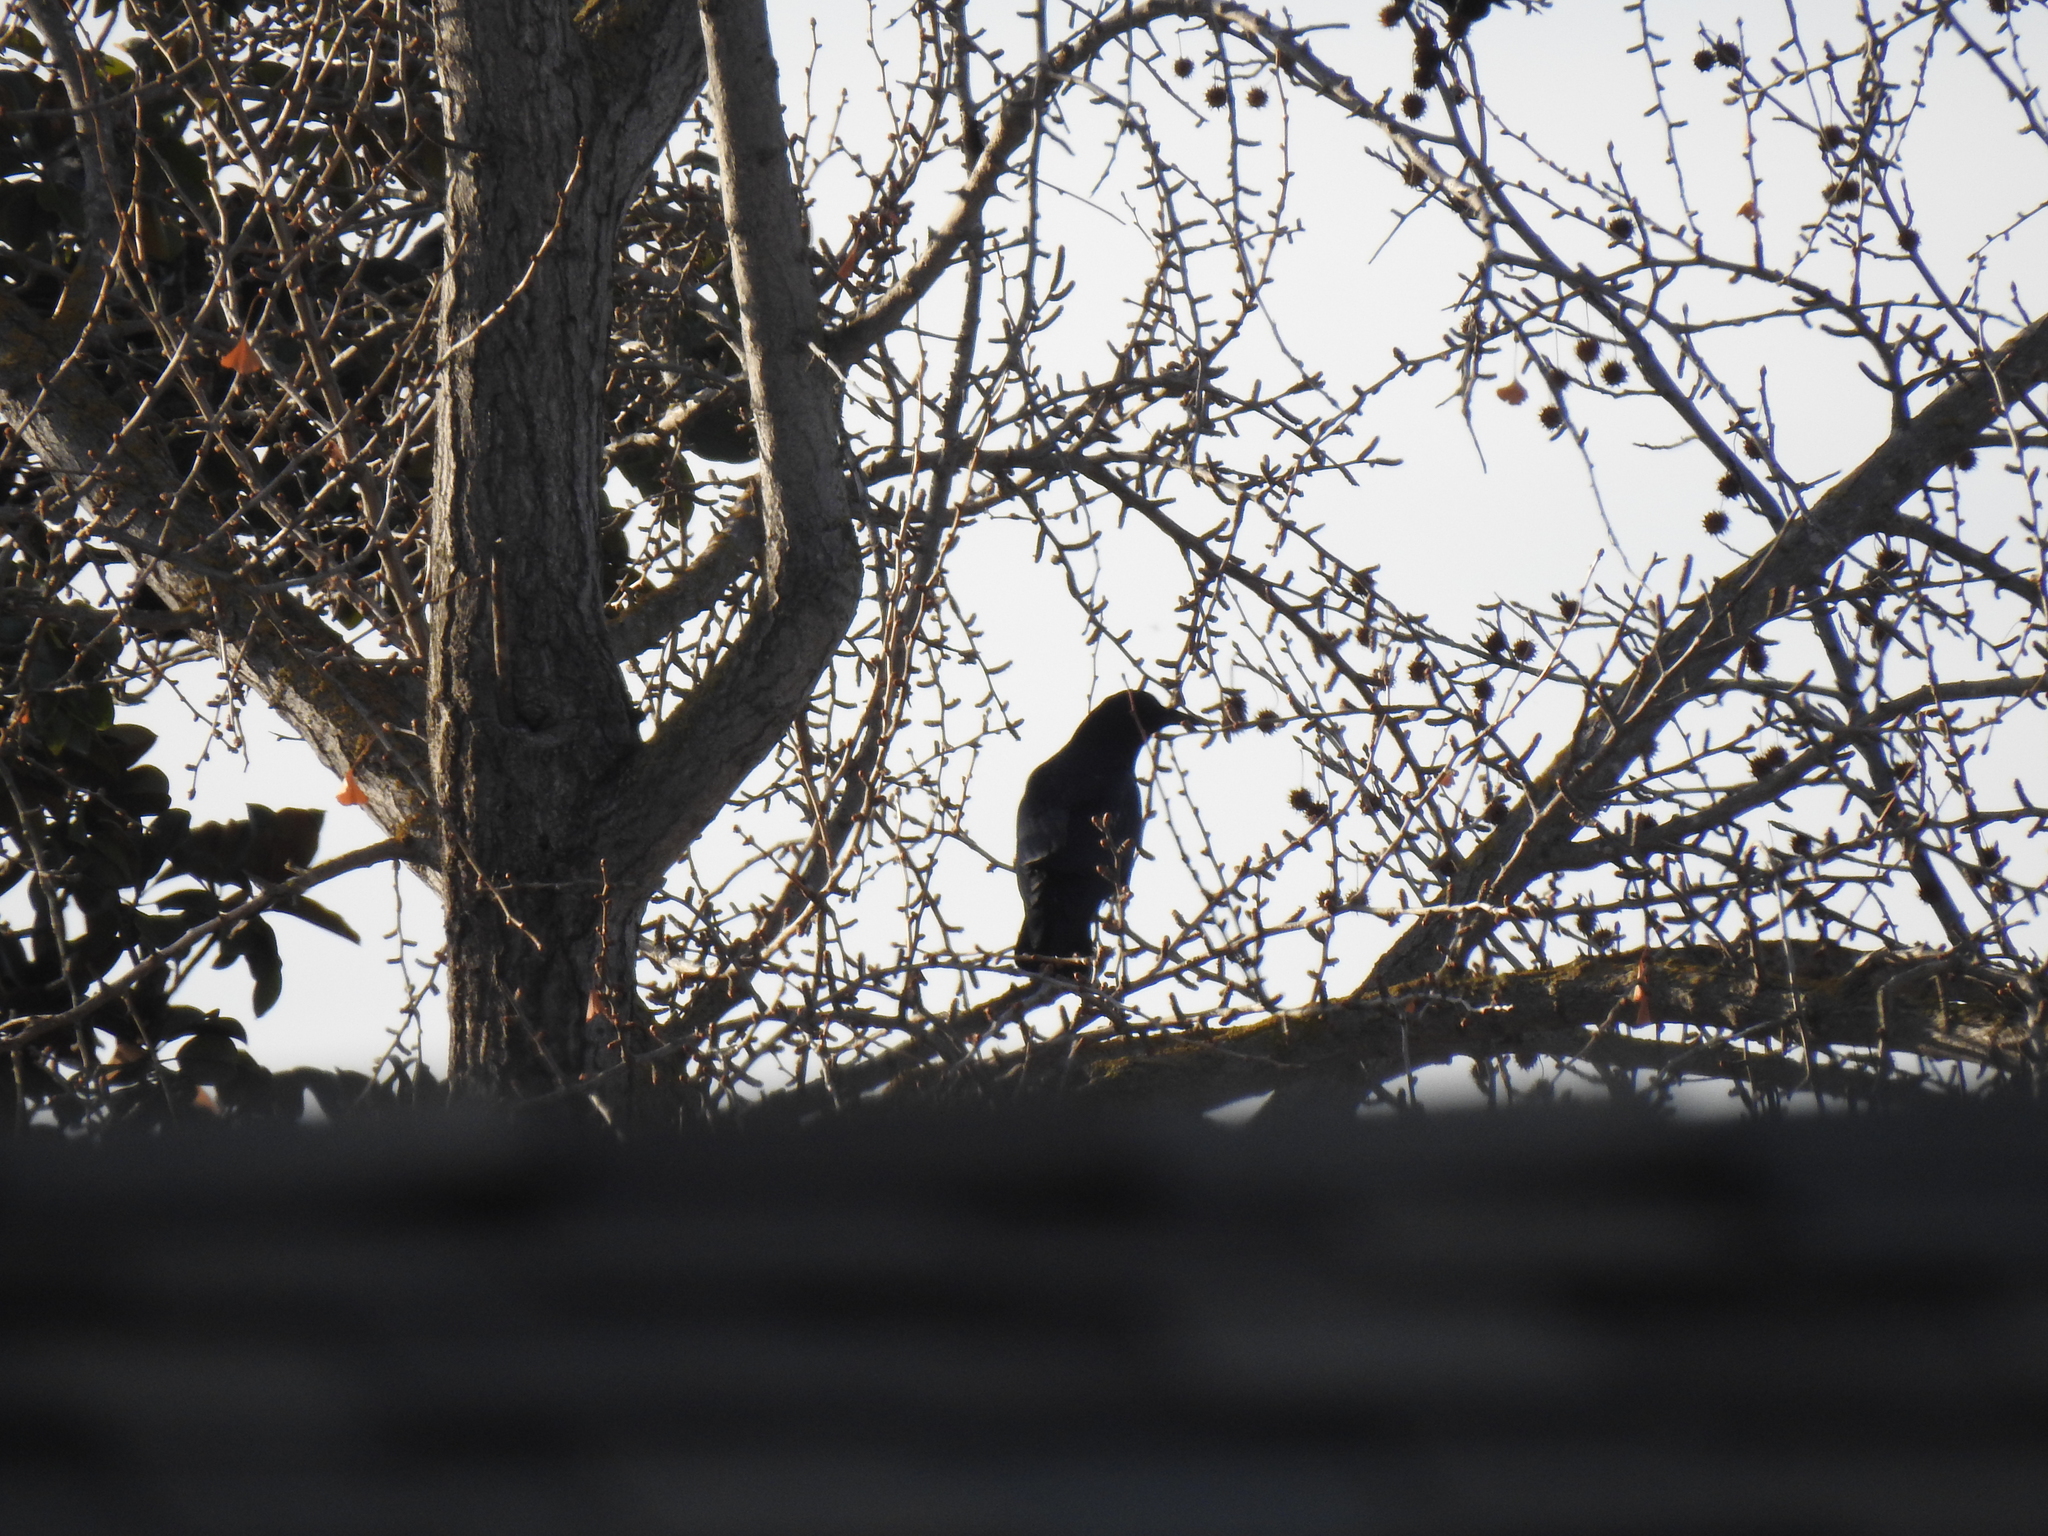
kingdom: Animalia
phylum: Chordata
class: Aves
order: Passeriformes
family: Corvidae
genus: Corvus
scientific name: Corvus brachyrhynchos
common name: American crow
